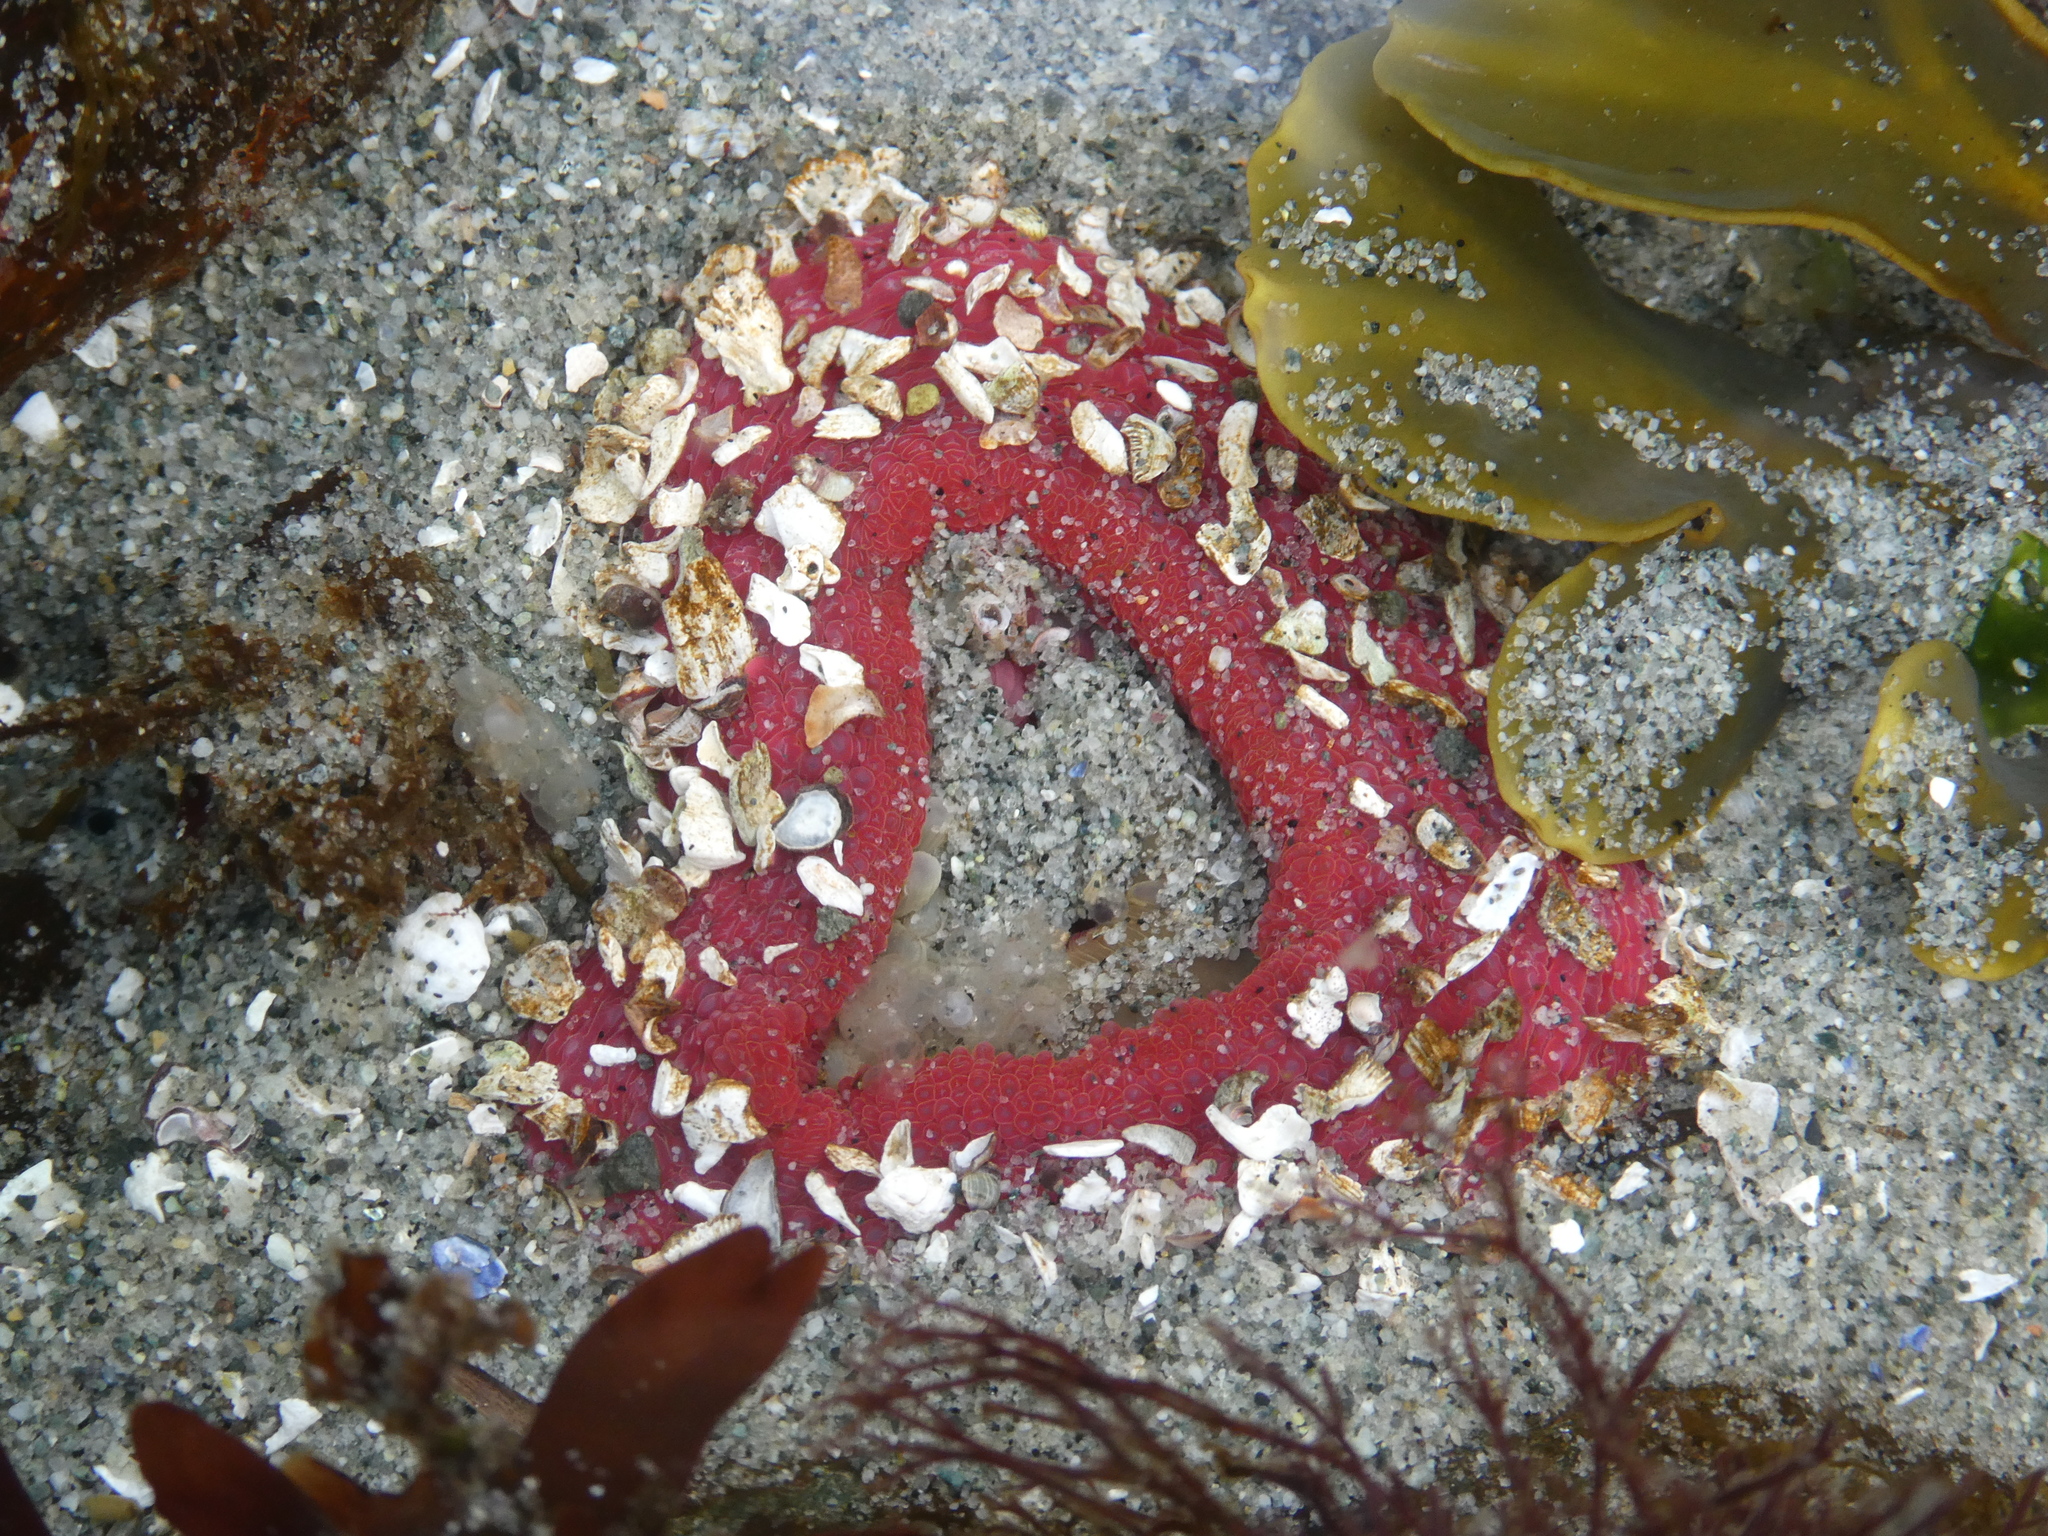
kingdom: Animalia
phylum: Cnidaria
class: Anthozoa
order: Actiniaria
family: Actiniidae
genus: Urticina
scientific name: Urticina clandestina
